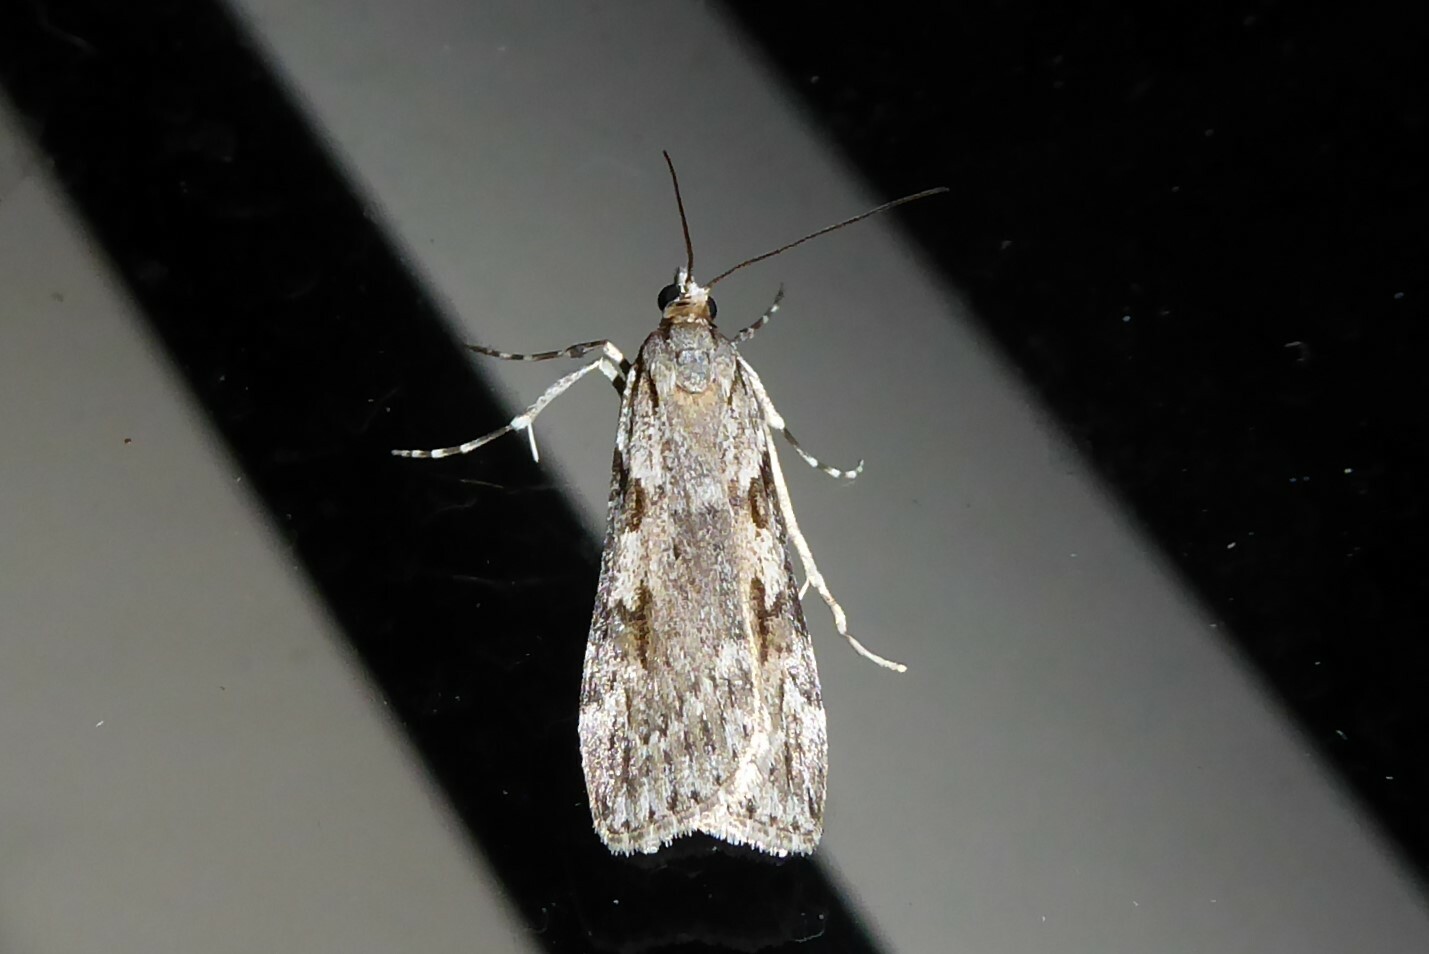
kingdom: Animalia
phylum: Arthropoda
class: Insecta
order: Lepidoptera
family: Crambidae
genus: Scoparia
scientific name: Scoparia halopis
